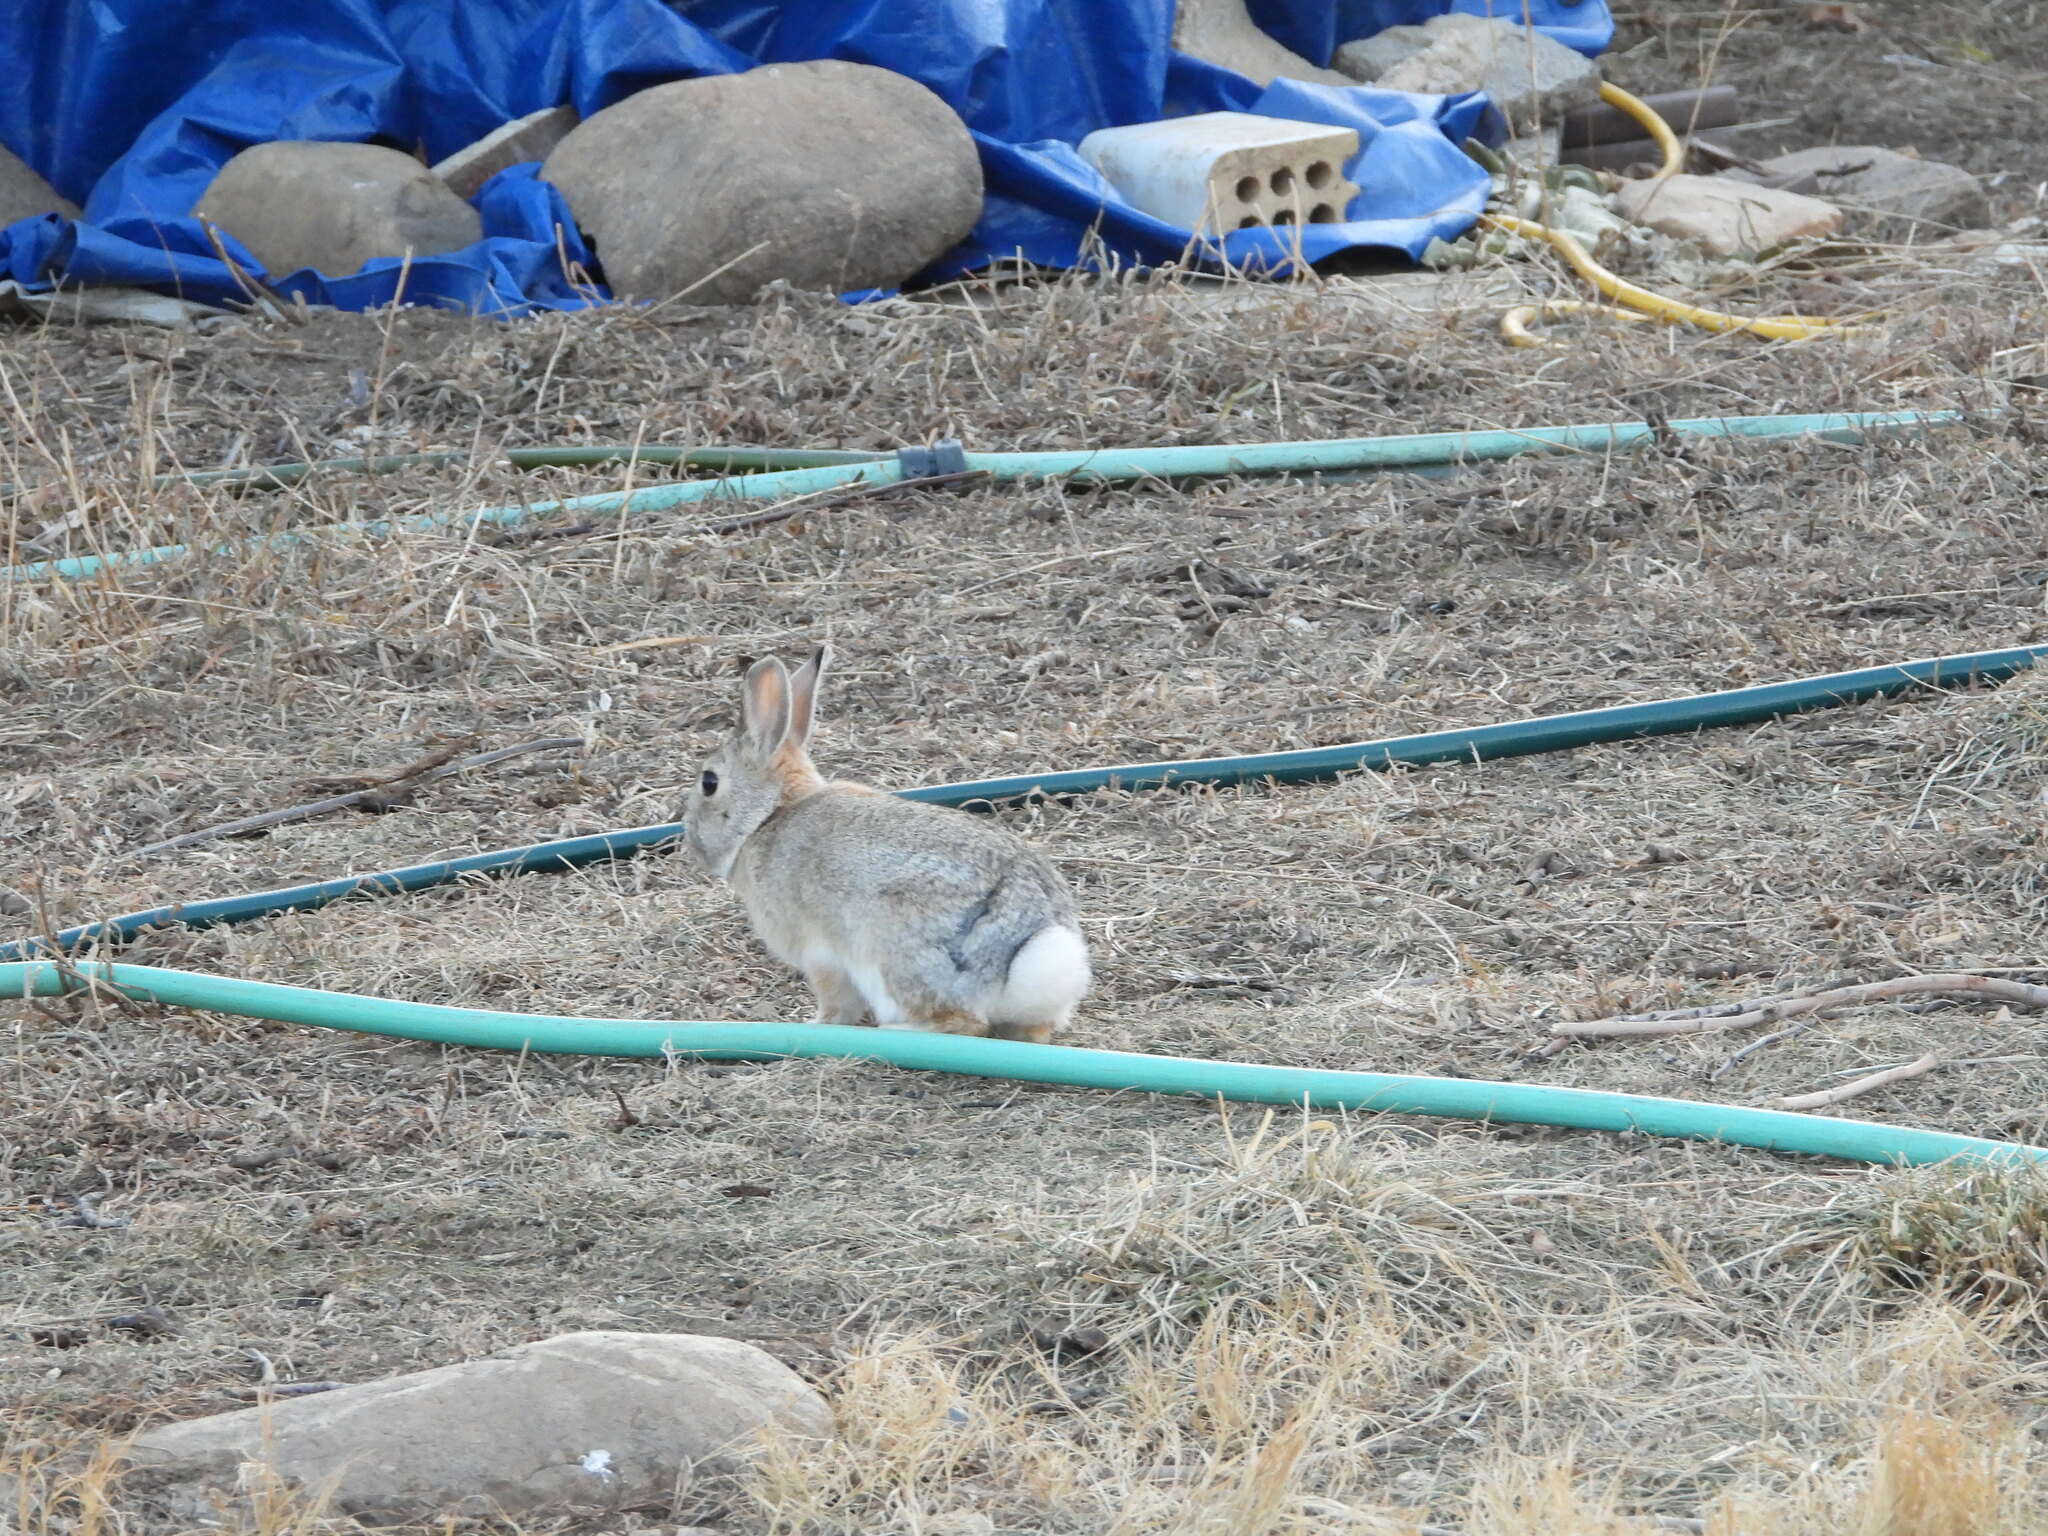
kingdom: Animalia
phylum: Chordata
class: Mammalia
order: Lagomorpha
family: Leporidae
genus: Sylvilagus
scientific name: Sylvilagus audubonii
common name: Desert cottontail
